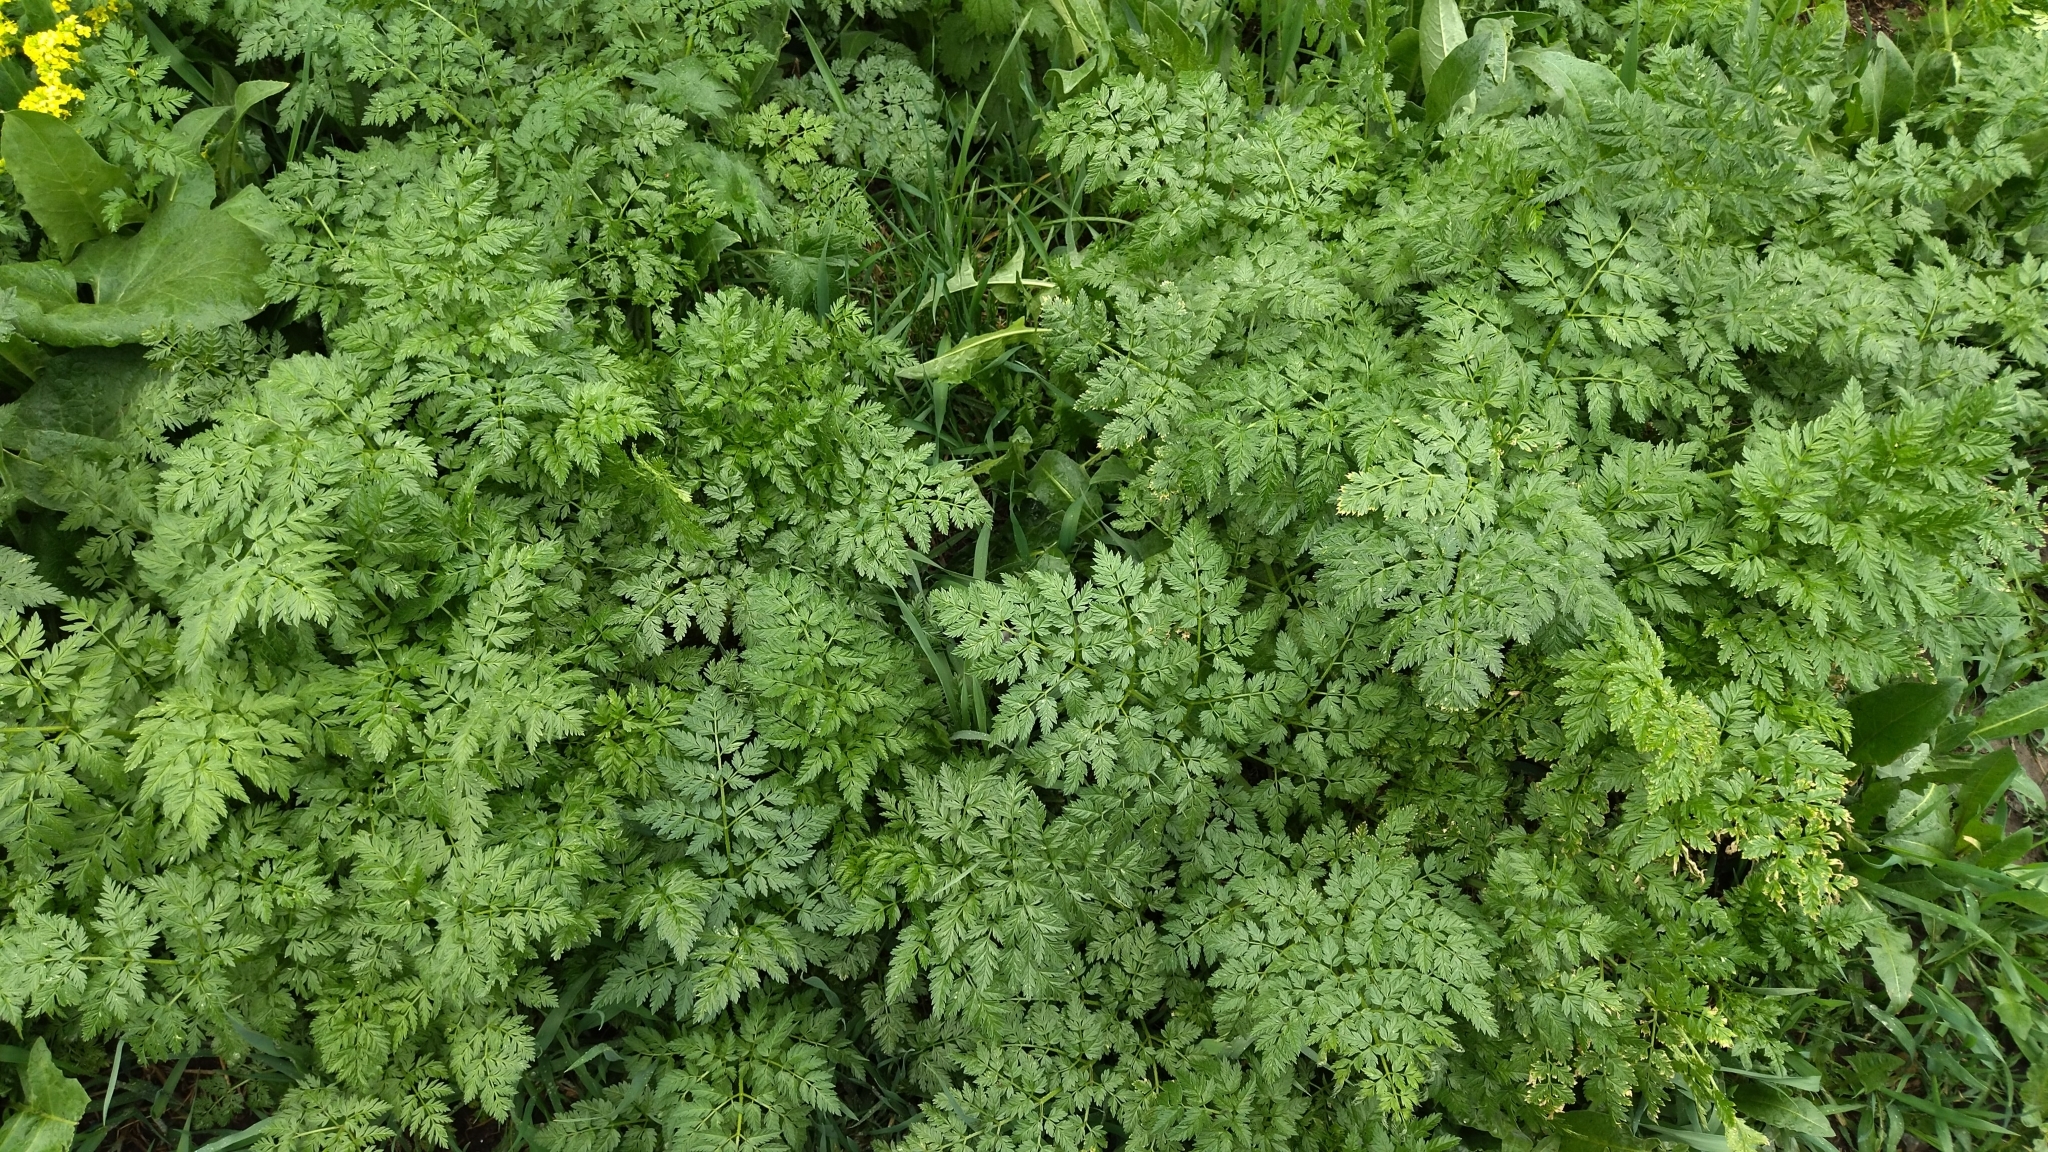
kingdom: Plantae
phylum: Tracheophyta
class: Magnoliopsida
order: Apiales
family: Apiaceae
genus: Anthriscus
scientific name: Anthriscus sylvestris
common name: Cow parsley
